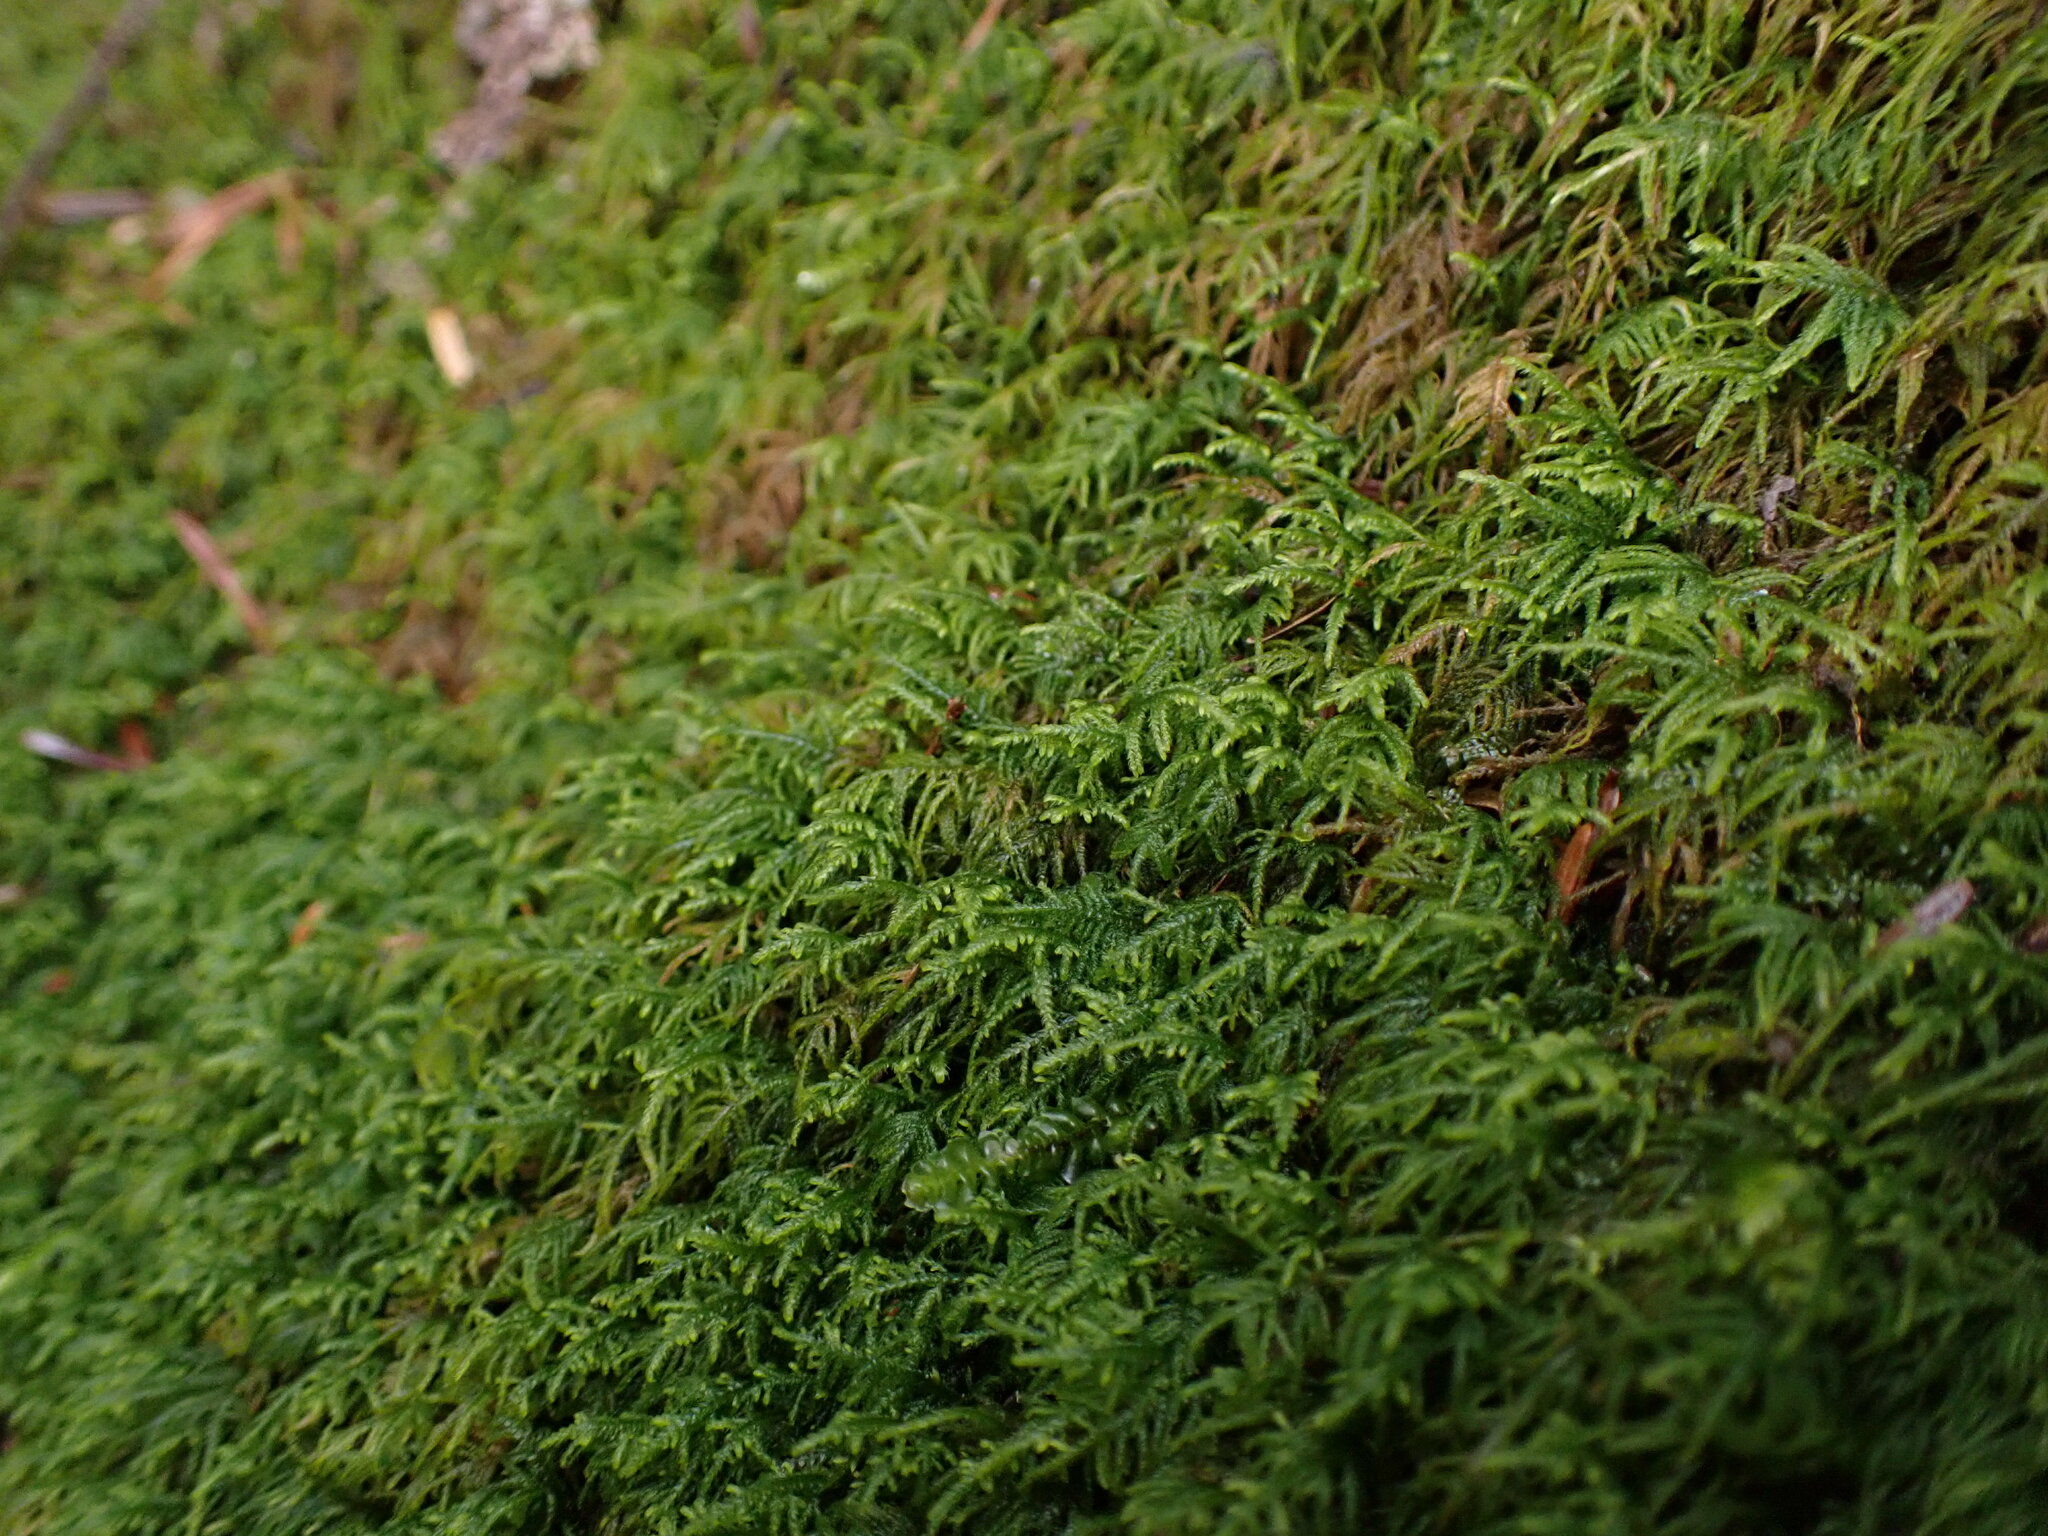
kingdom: Plantae
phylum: Bryophyta
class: Bryopsida
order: Hypnales
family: Lembophyllaceae
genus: Heterocladium
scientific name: Heterocladium macounii
